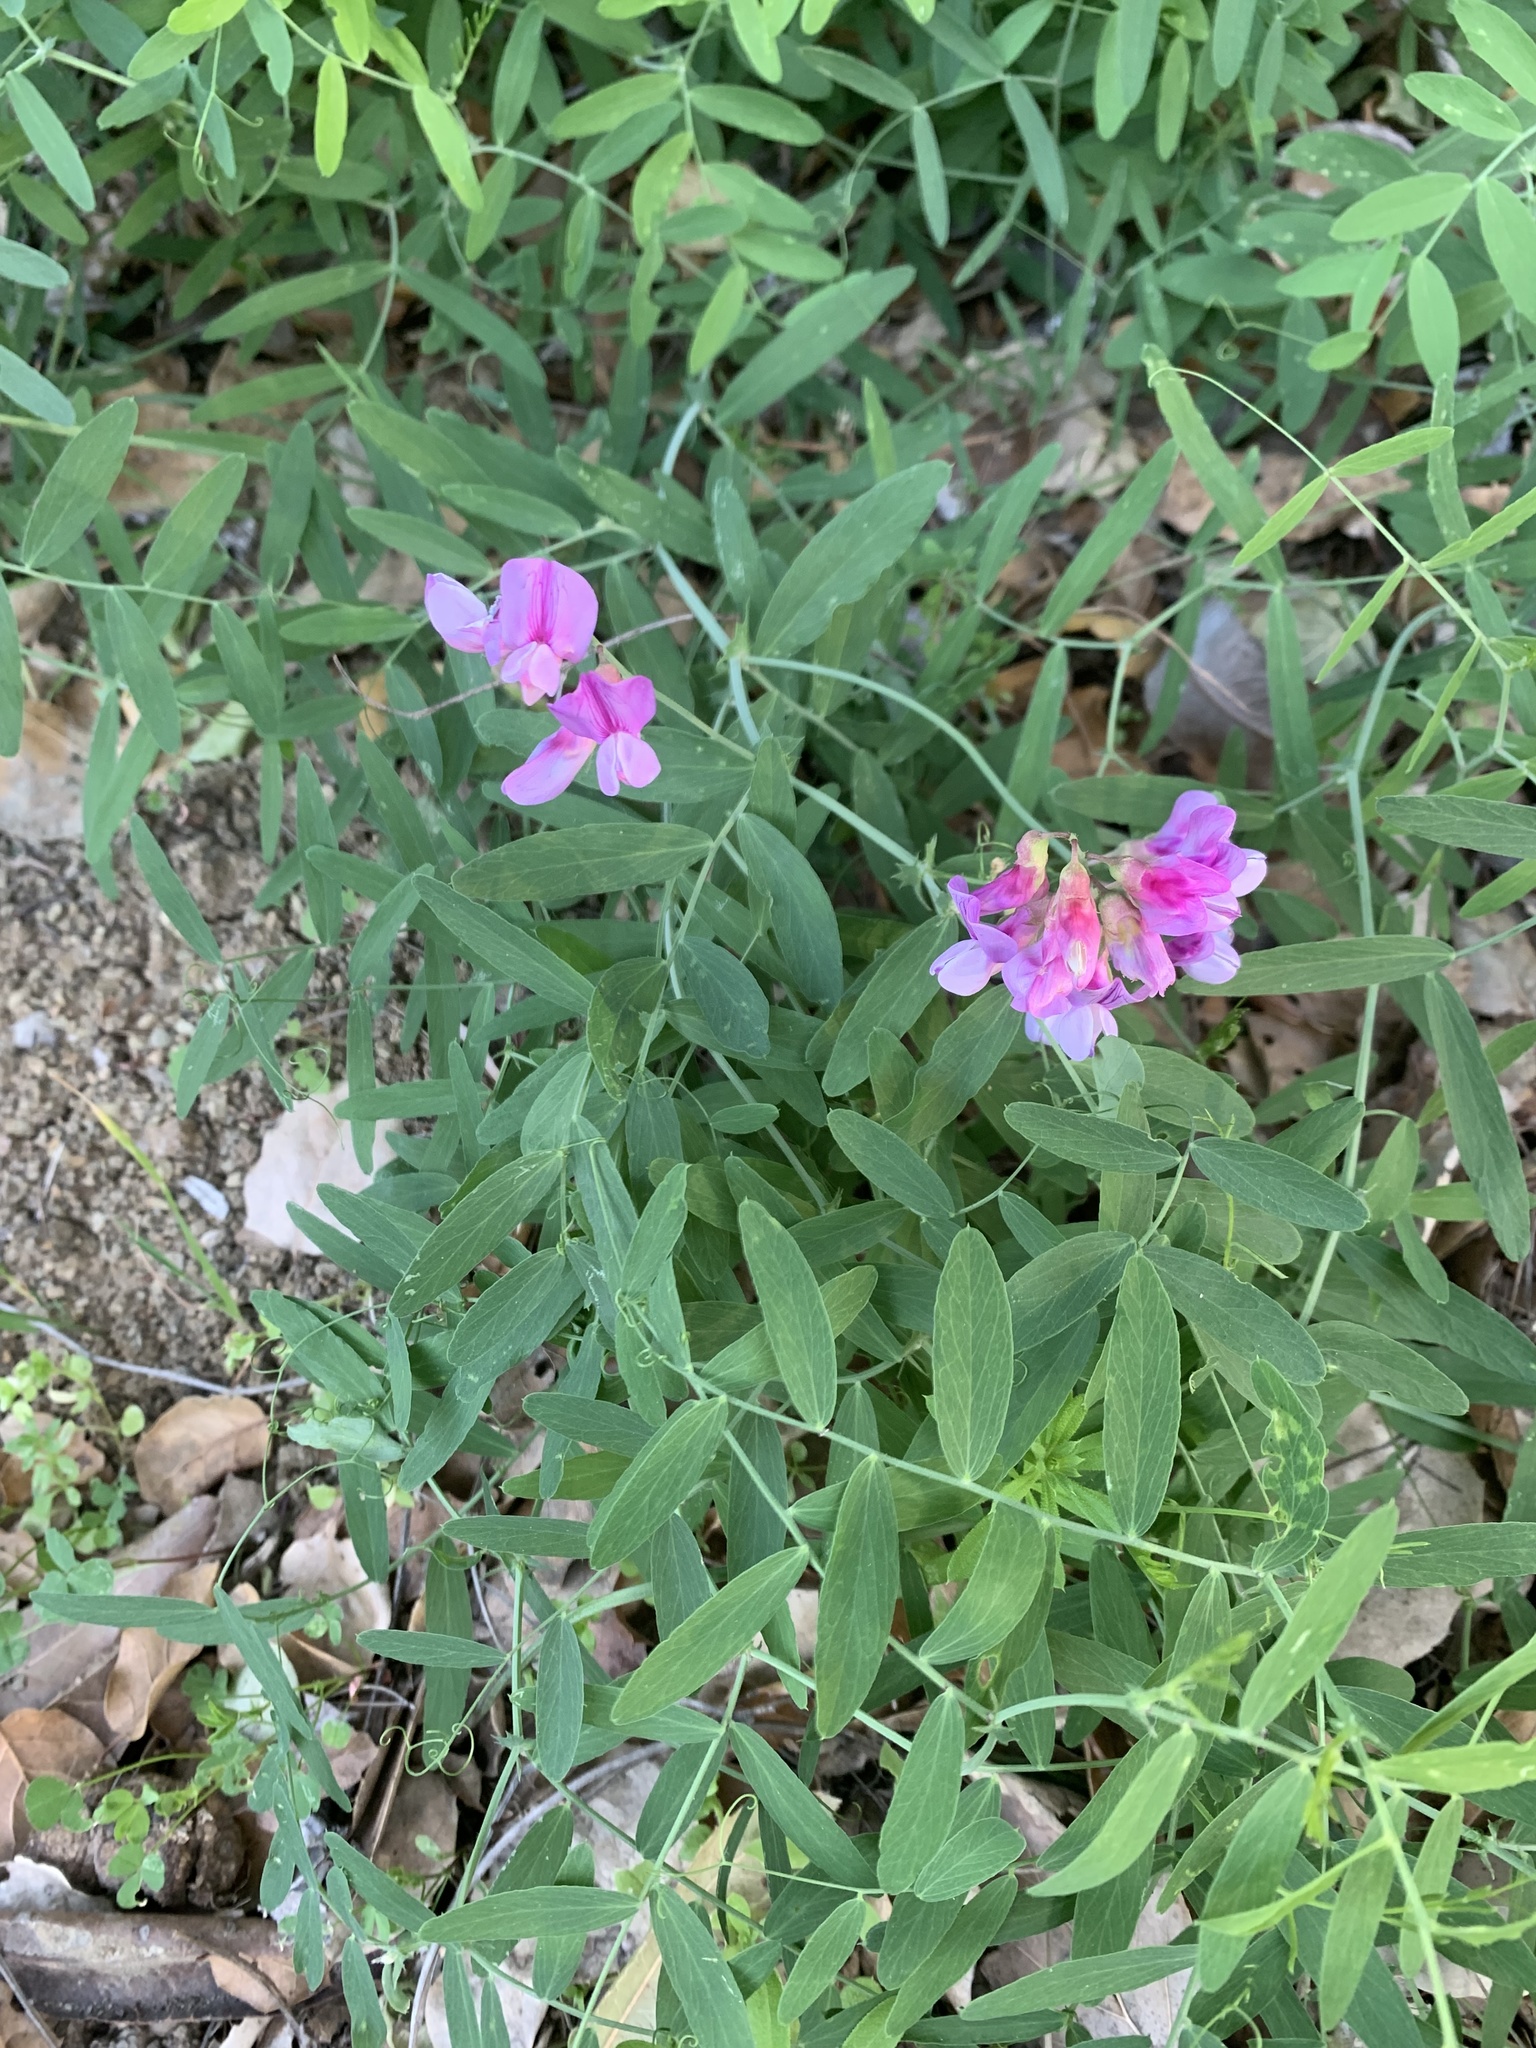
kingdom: Plantae
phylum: Tracheophyta
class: Magnoliopsida
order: Fabales
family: Fabaceae
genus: Lathyrus
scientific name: Lathyrus vestitus
